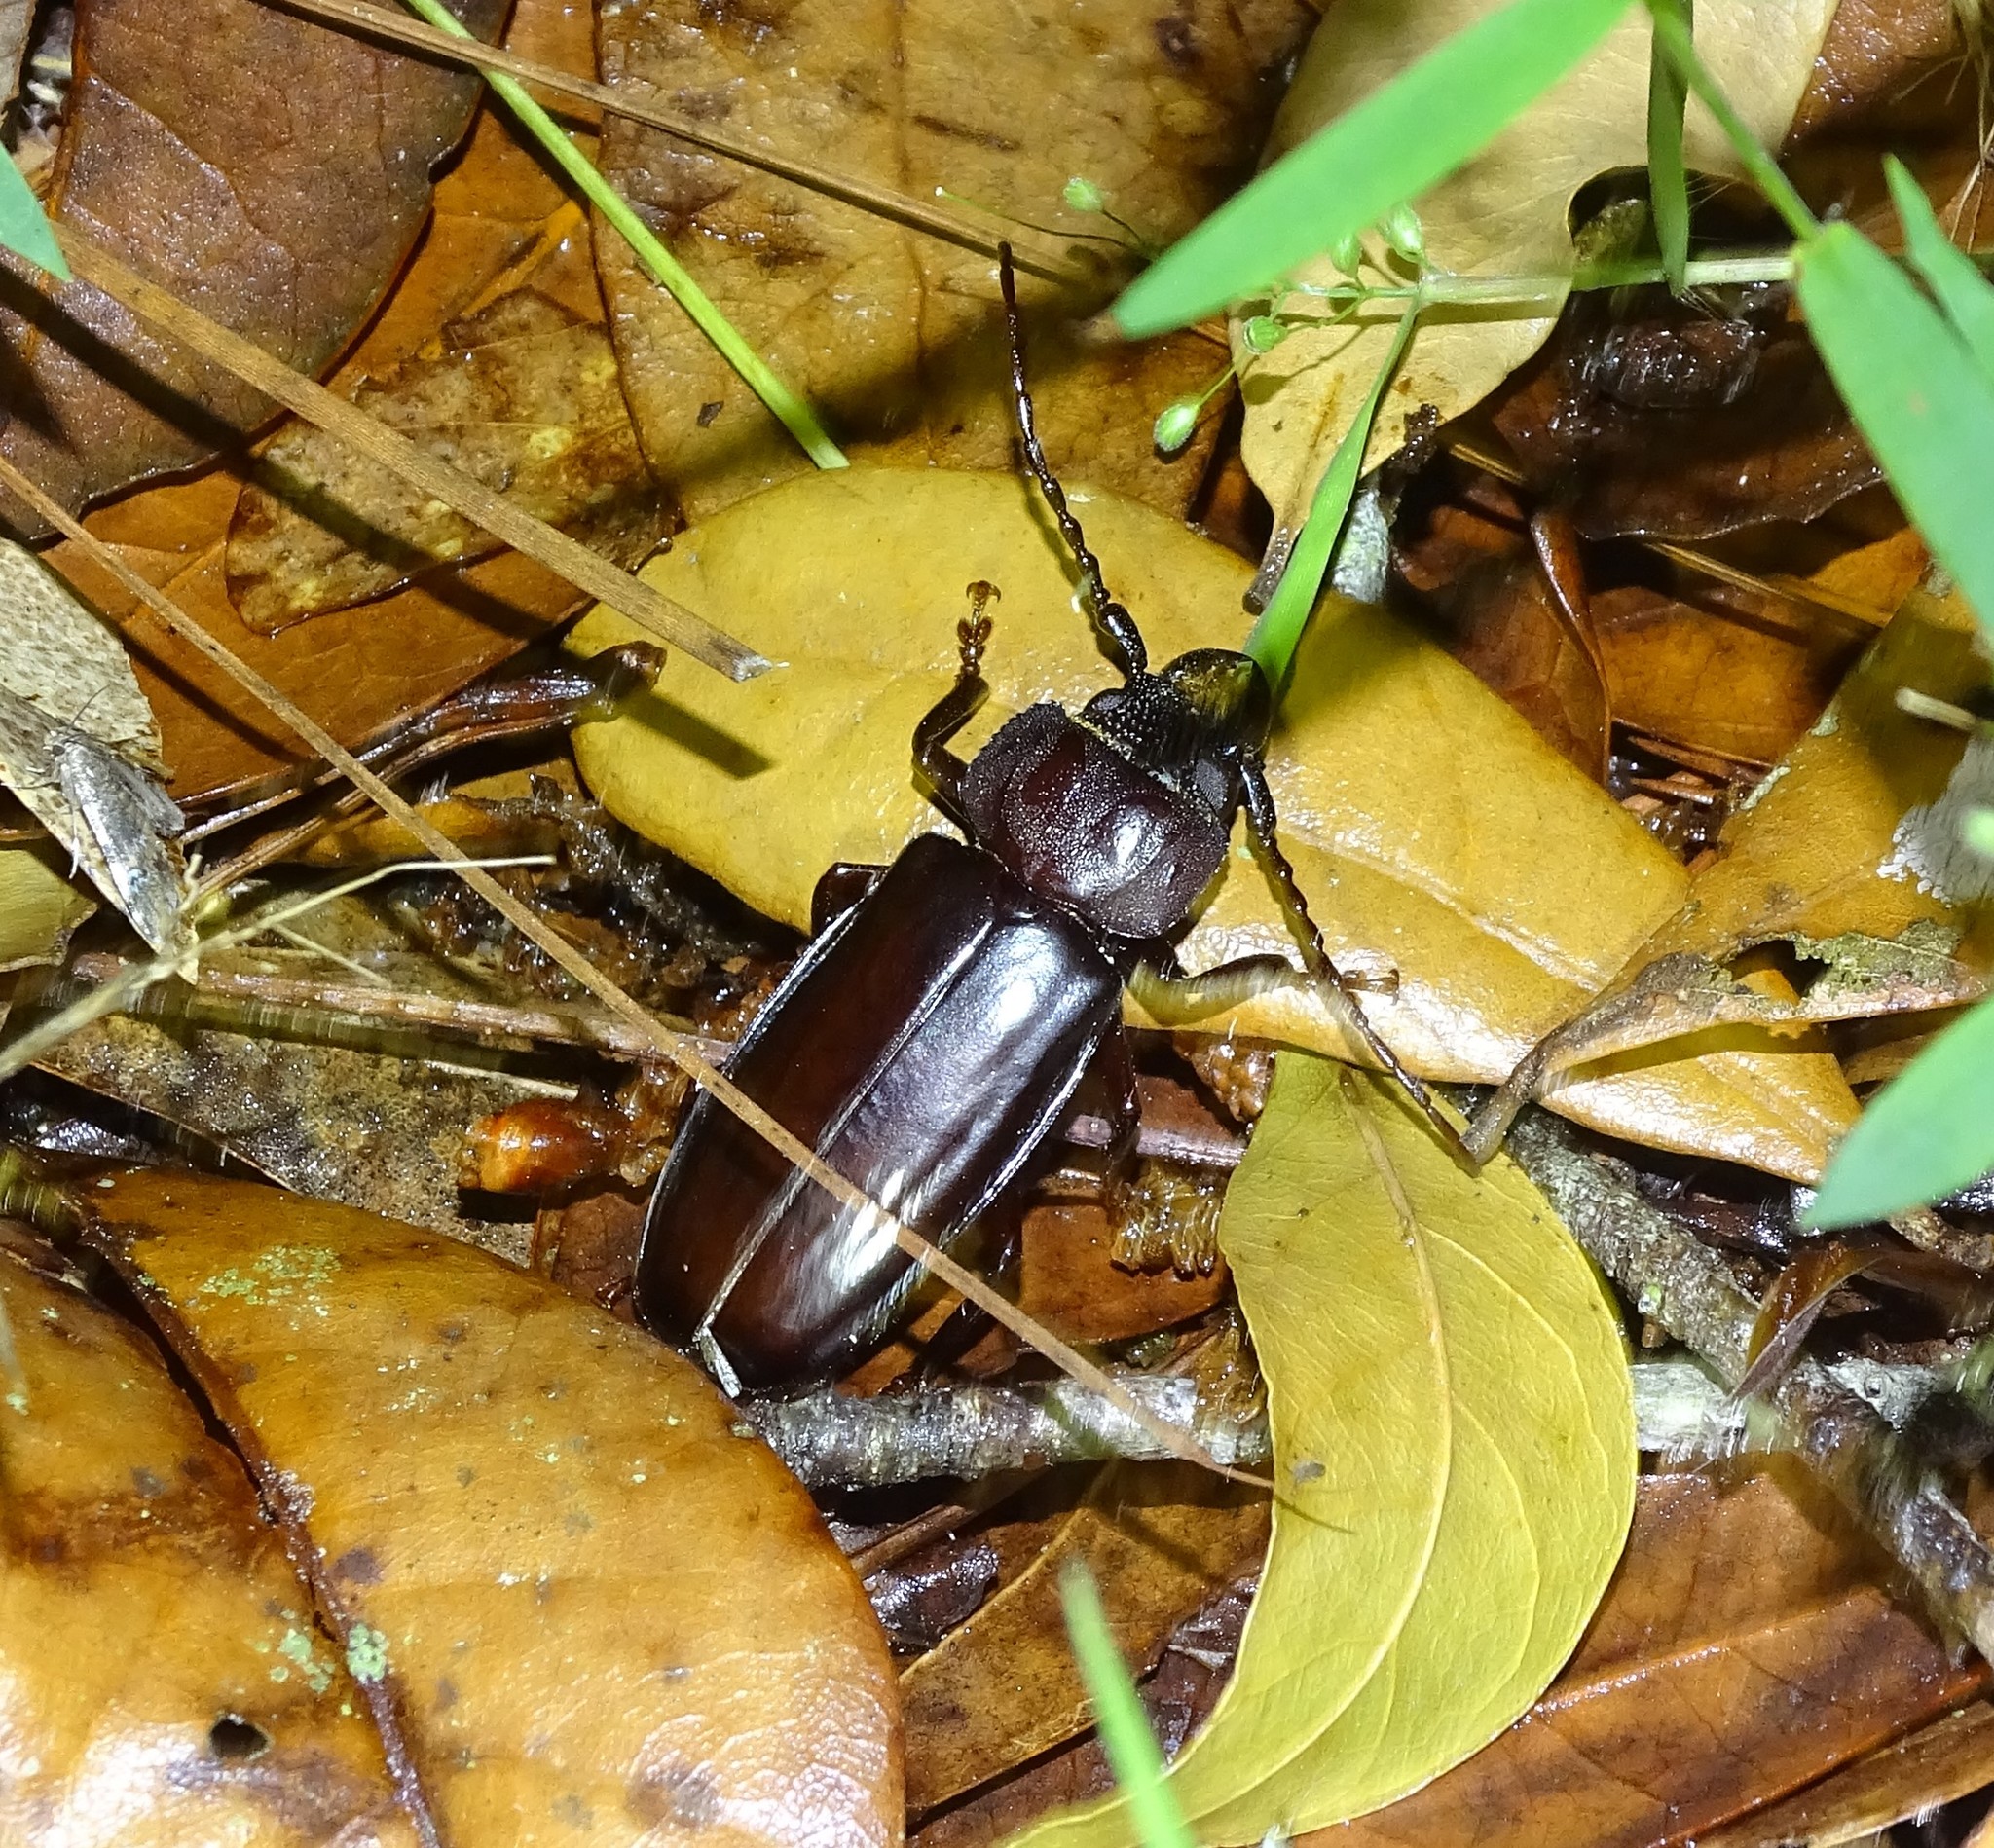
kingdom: Animalia
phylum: Arthropoda
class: Insecta
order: Coleoptera
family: Cerambycidae
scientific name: Cerambycidae
